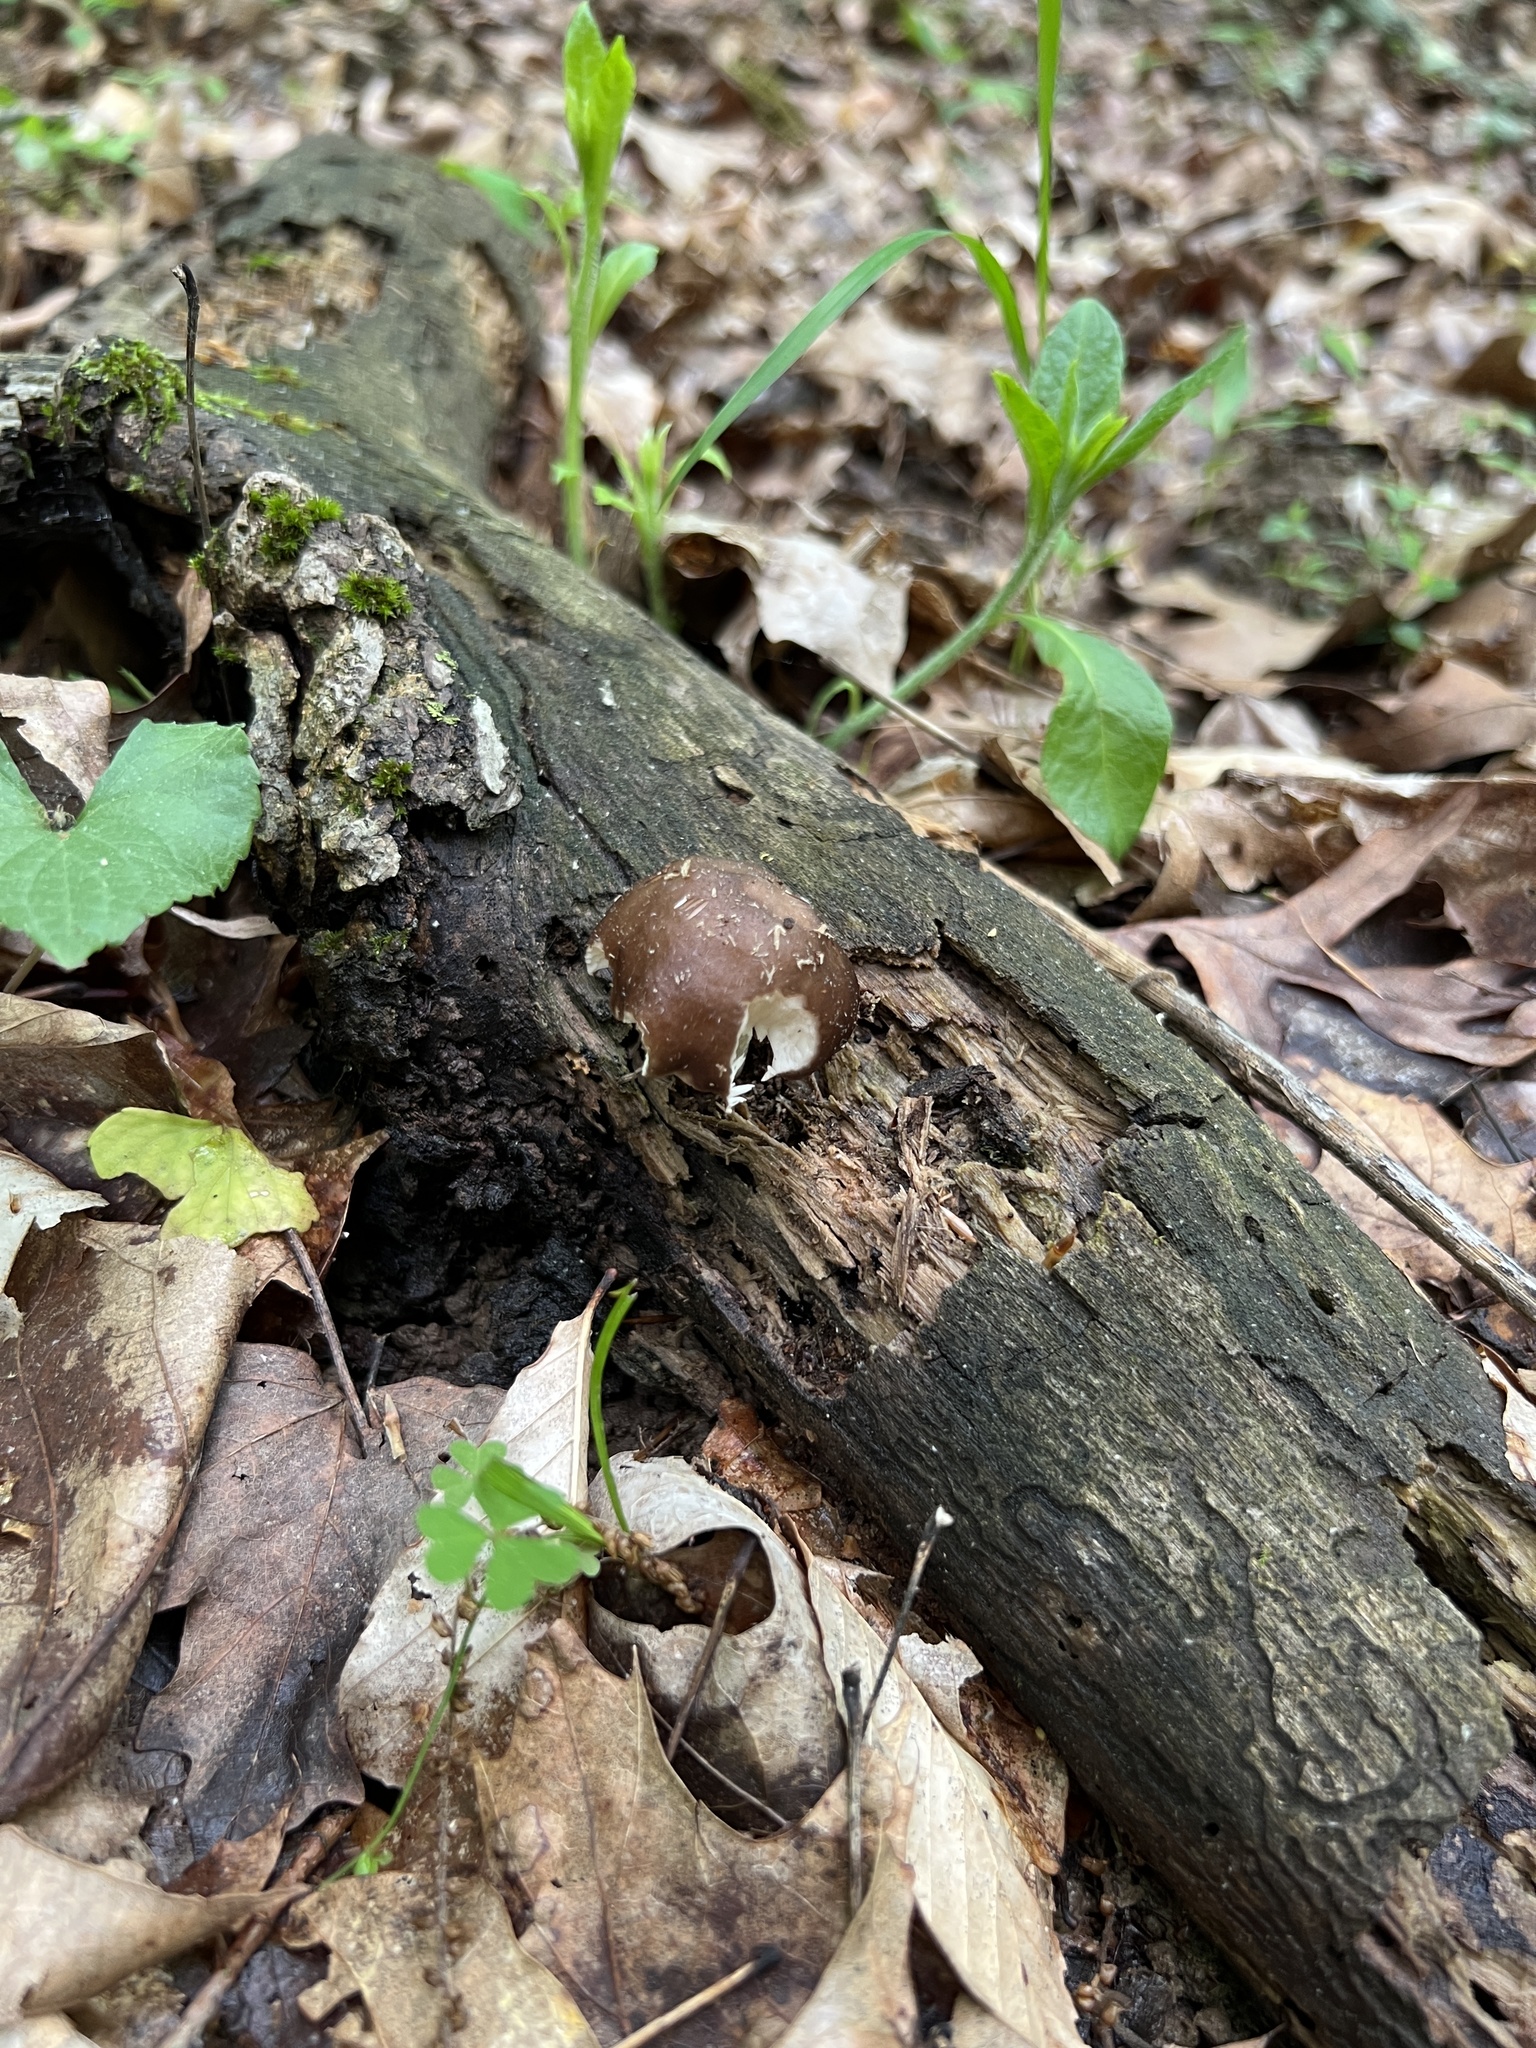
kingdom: Fungi
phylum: Basidiomycota
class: Agaricomycetes
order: Agaricales
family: Pluteaceae
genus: Pluteus
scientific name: Pluteus hongoi
